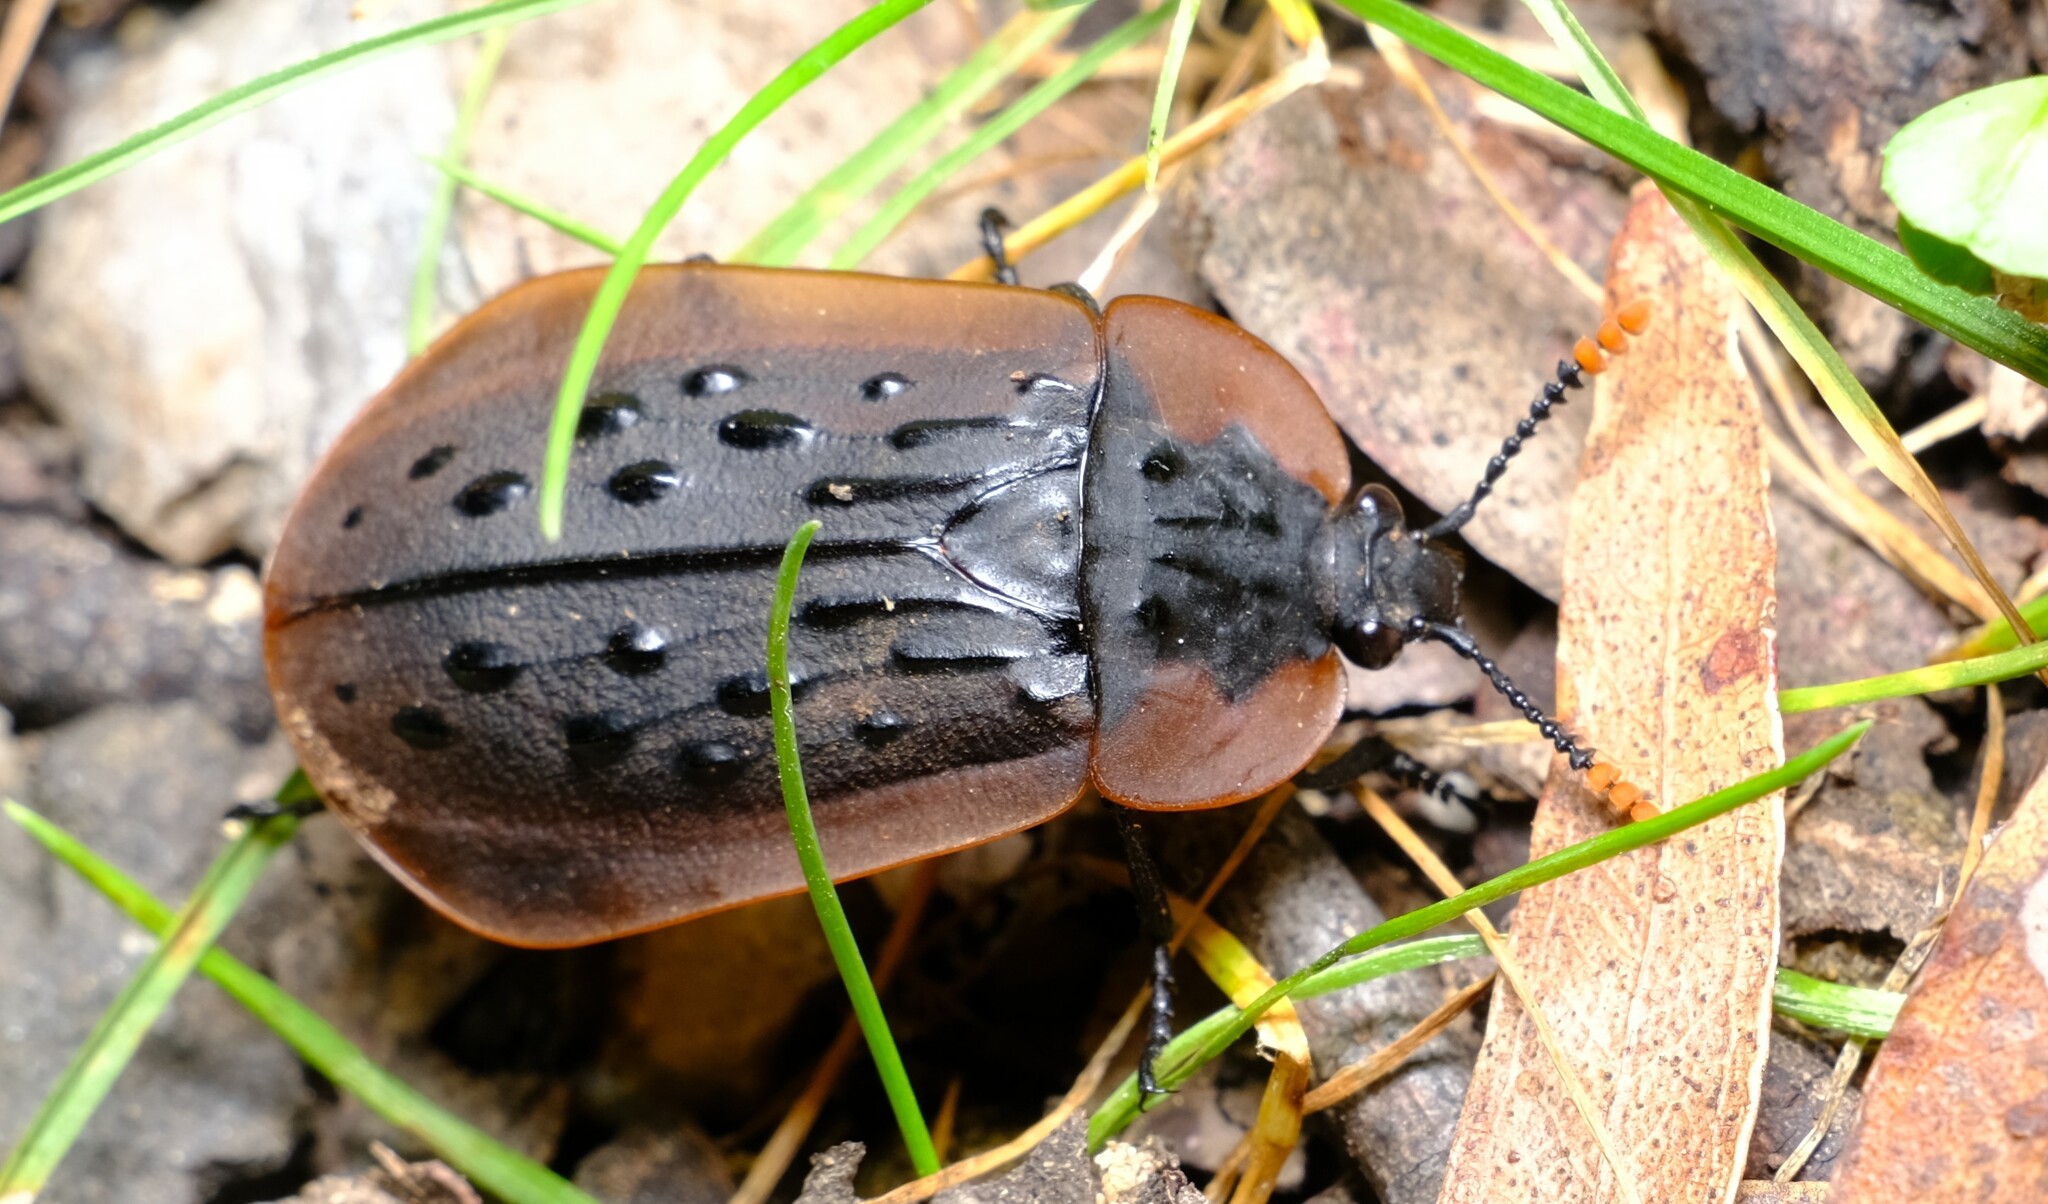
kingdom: Animalia
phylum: Arthropoda
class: Insecta
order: Coleoptera
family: Staphylinidae
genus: Ptomaphila
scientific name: Ptomaphila lacrymosa
